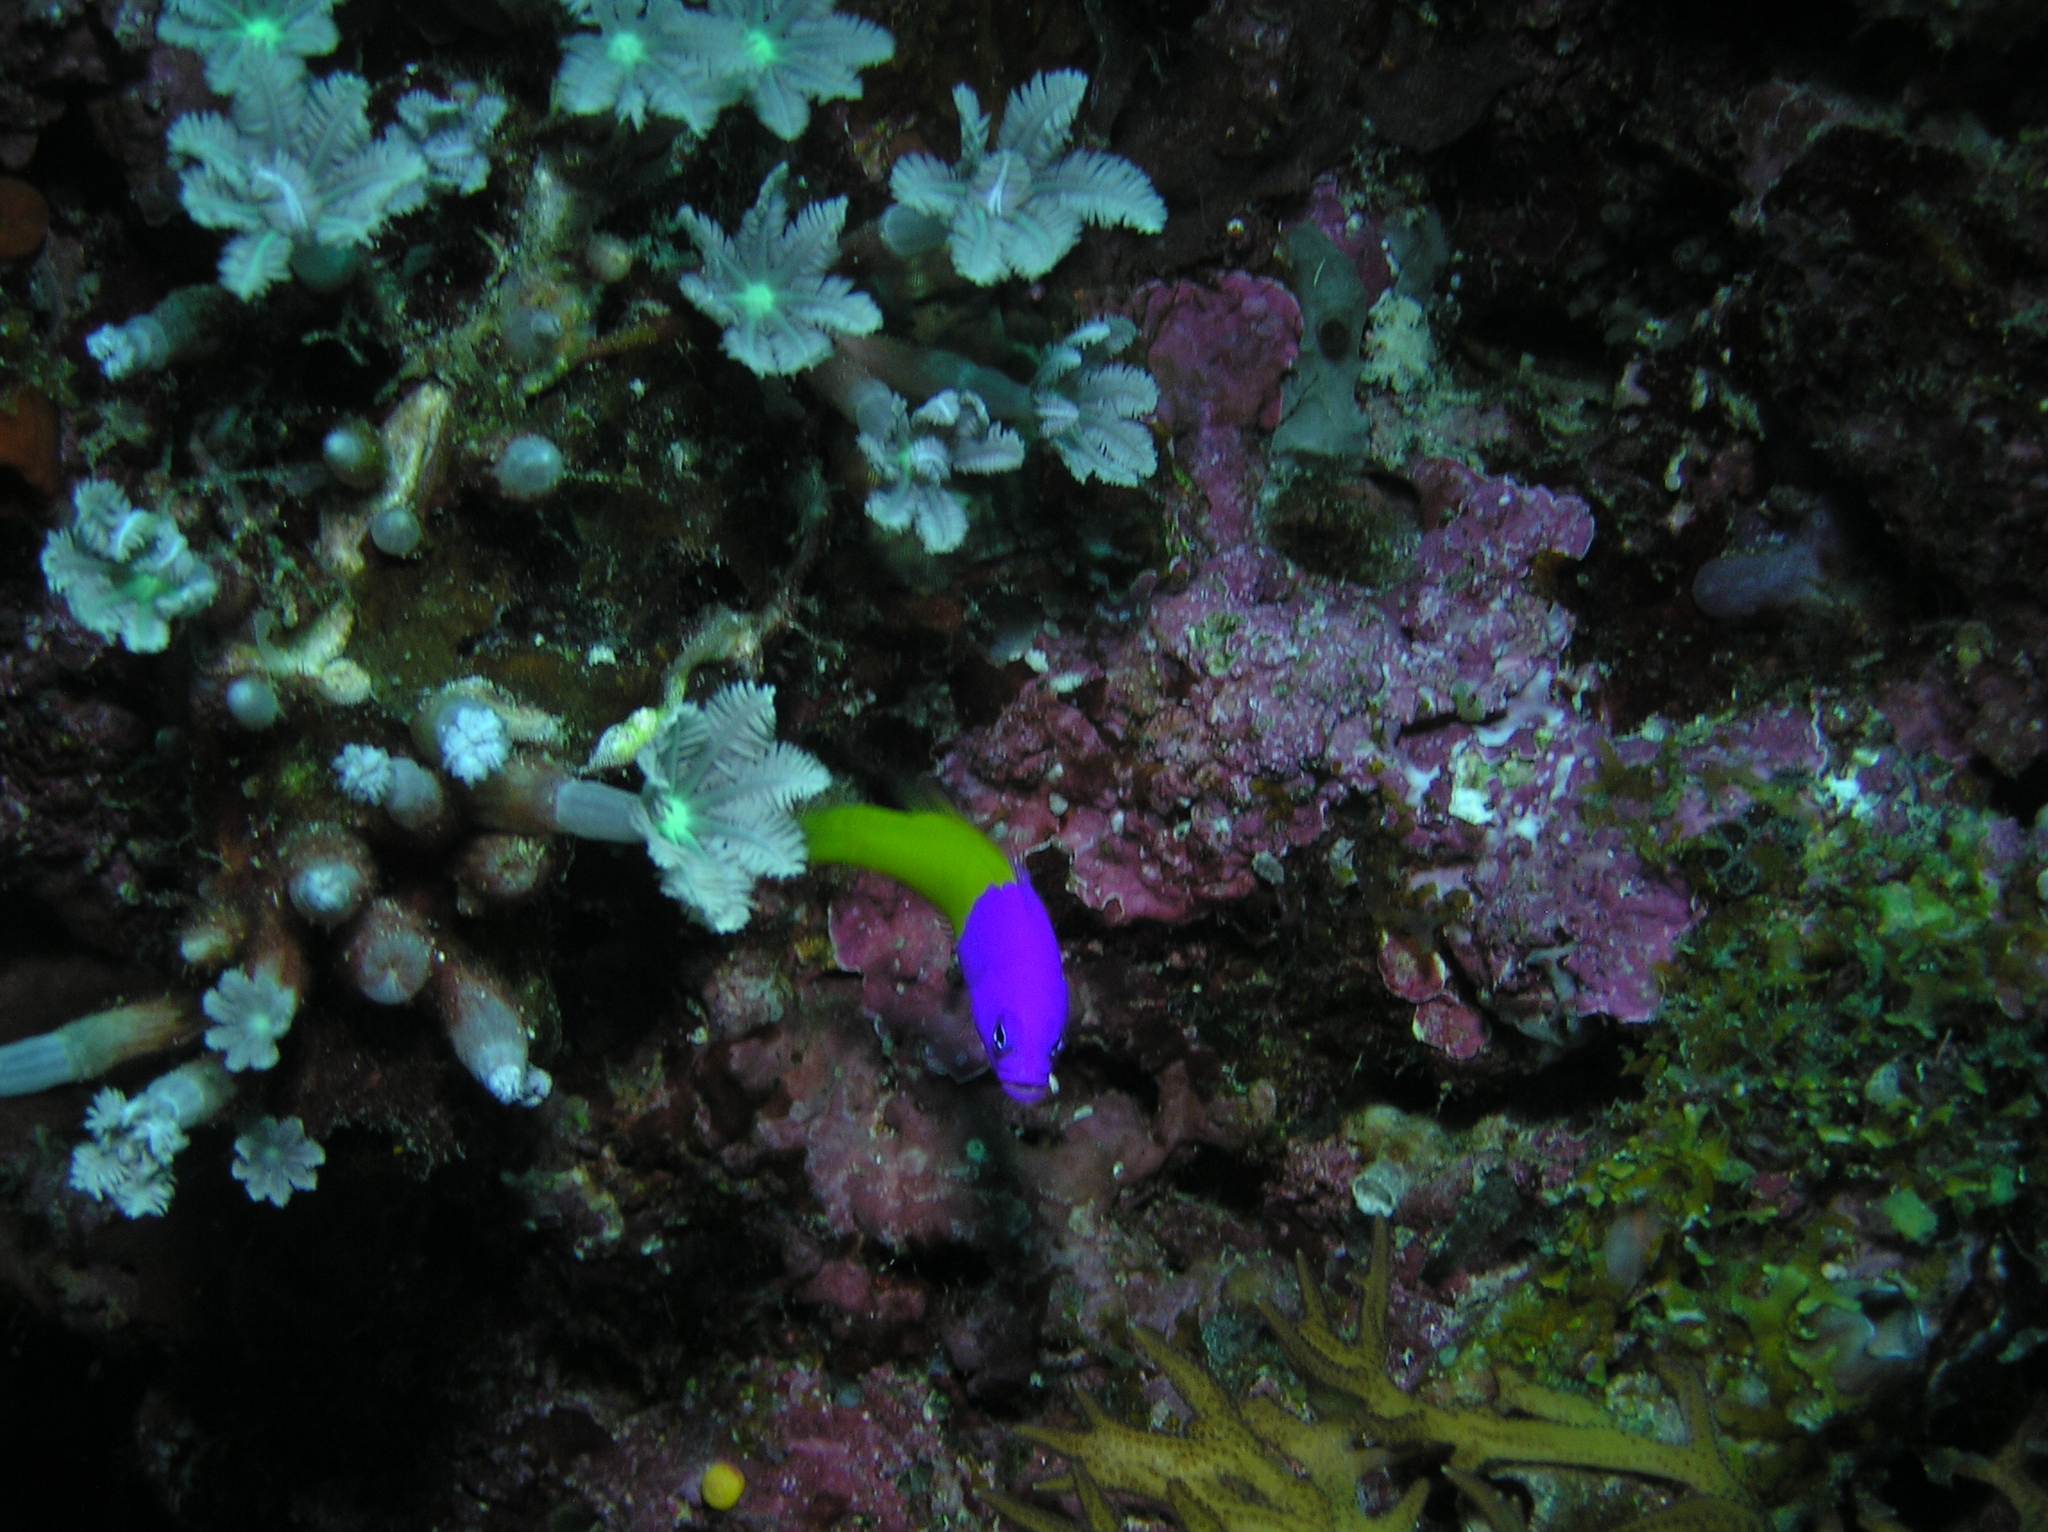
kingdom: Animalia
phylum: Chordata
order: Perciformes
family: Pseudochromidae
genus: Pictichromis
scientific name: Pictichromis paccagnellae
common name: Royal dottyback
